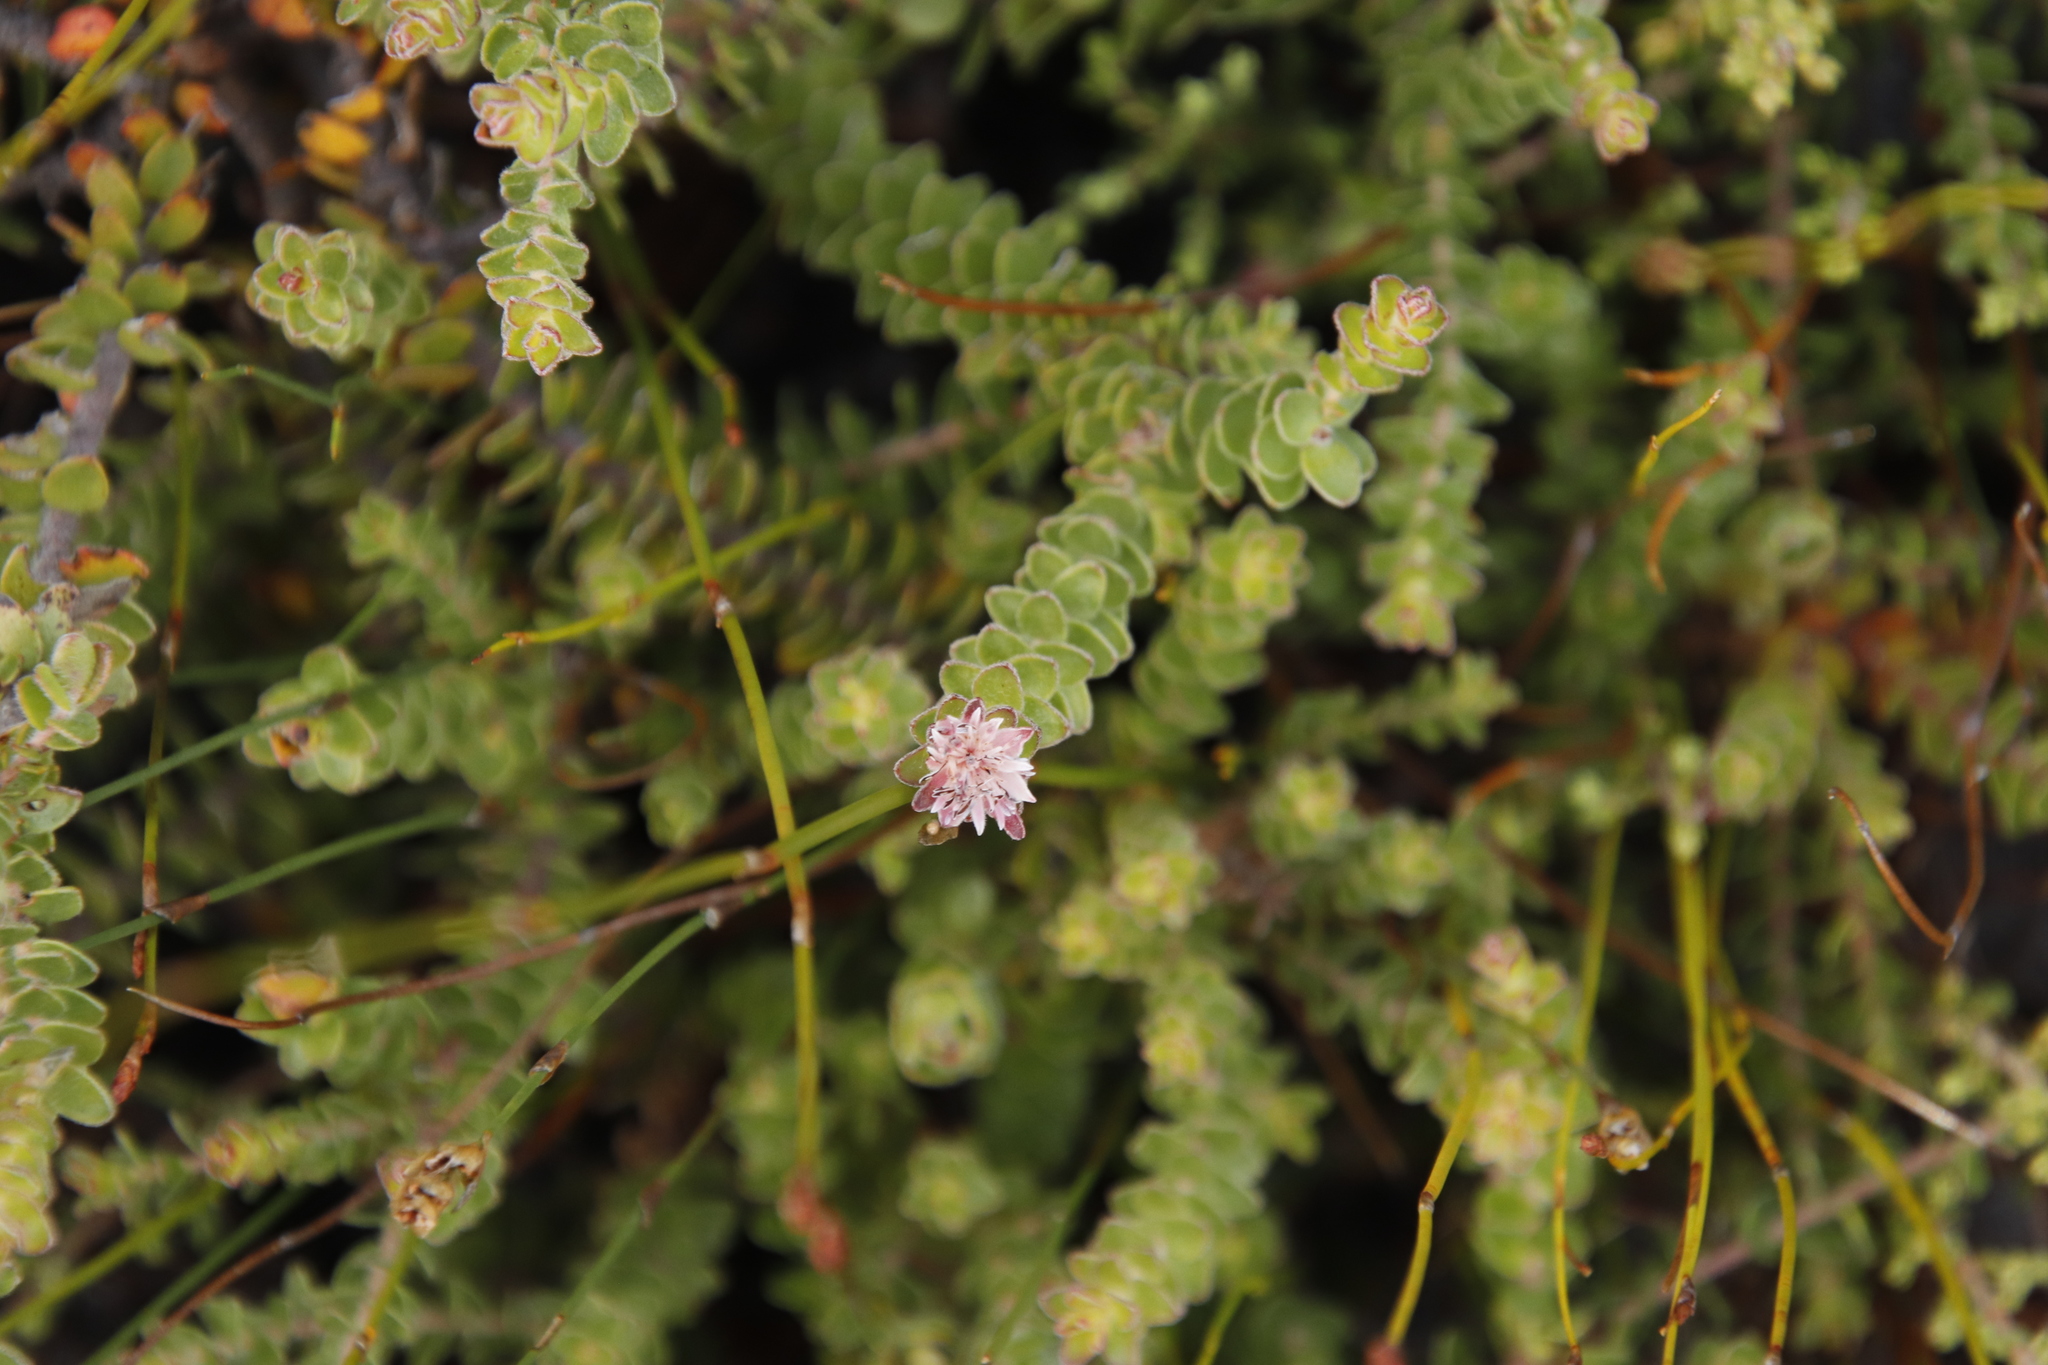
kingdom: Plantae
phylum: Tracheophyta
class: Magnoliopsida
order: Proteales
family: Proteaceae
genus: Diastella
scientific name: Diastella divaricata
